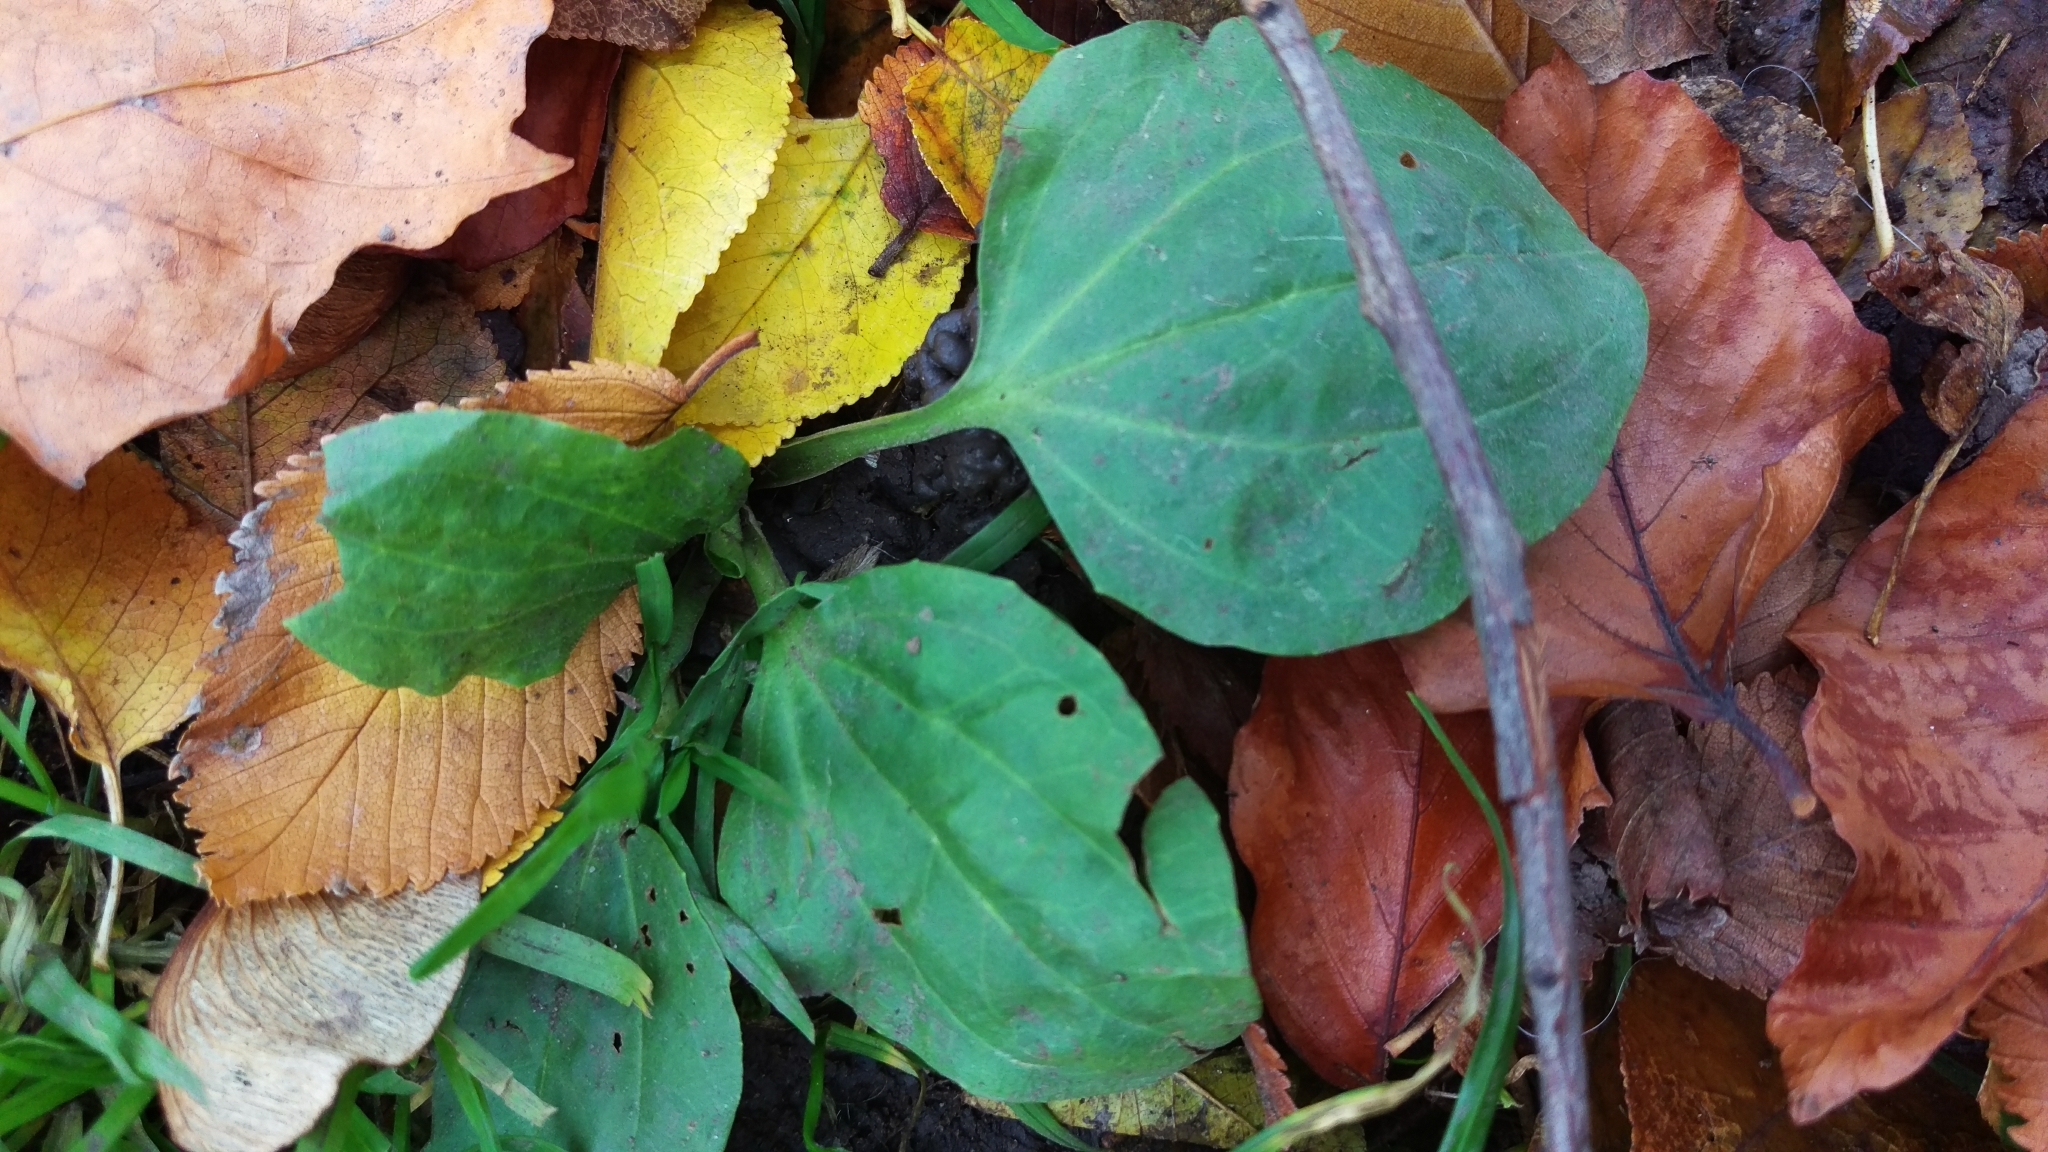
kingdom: Plantae
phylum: Tracheophyta
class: Magnoliopsida
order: Lamiales
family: Plantaginaceae
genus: Plantago
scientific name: Plantago major
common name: Common plantain
